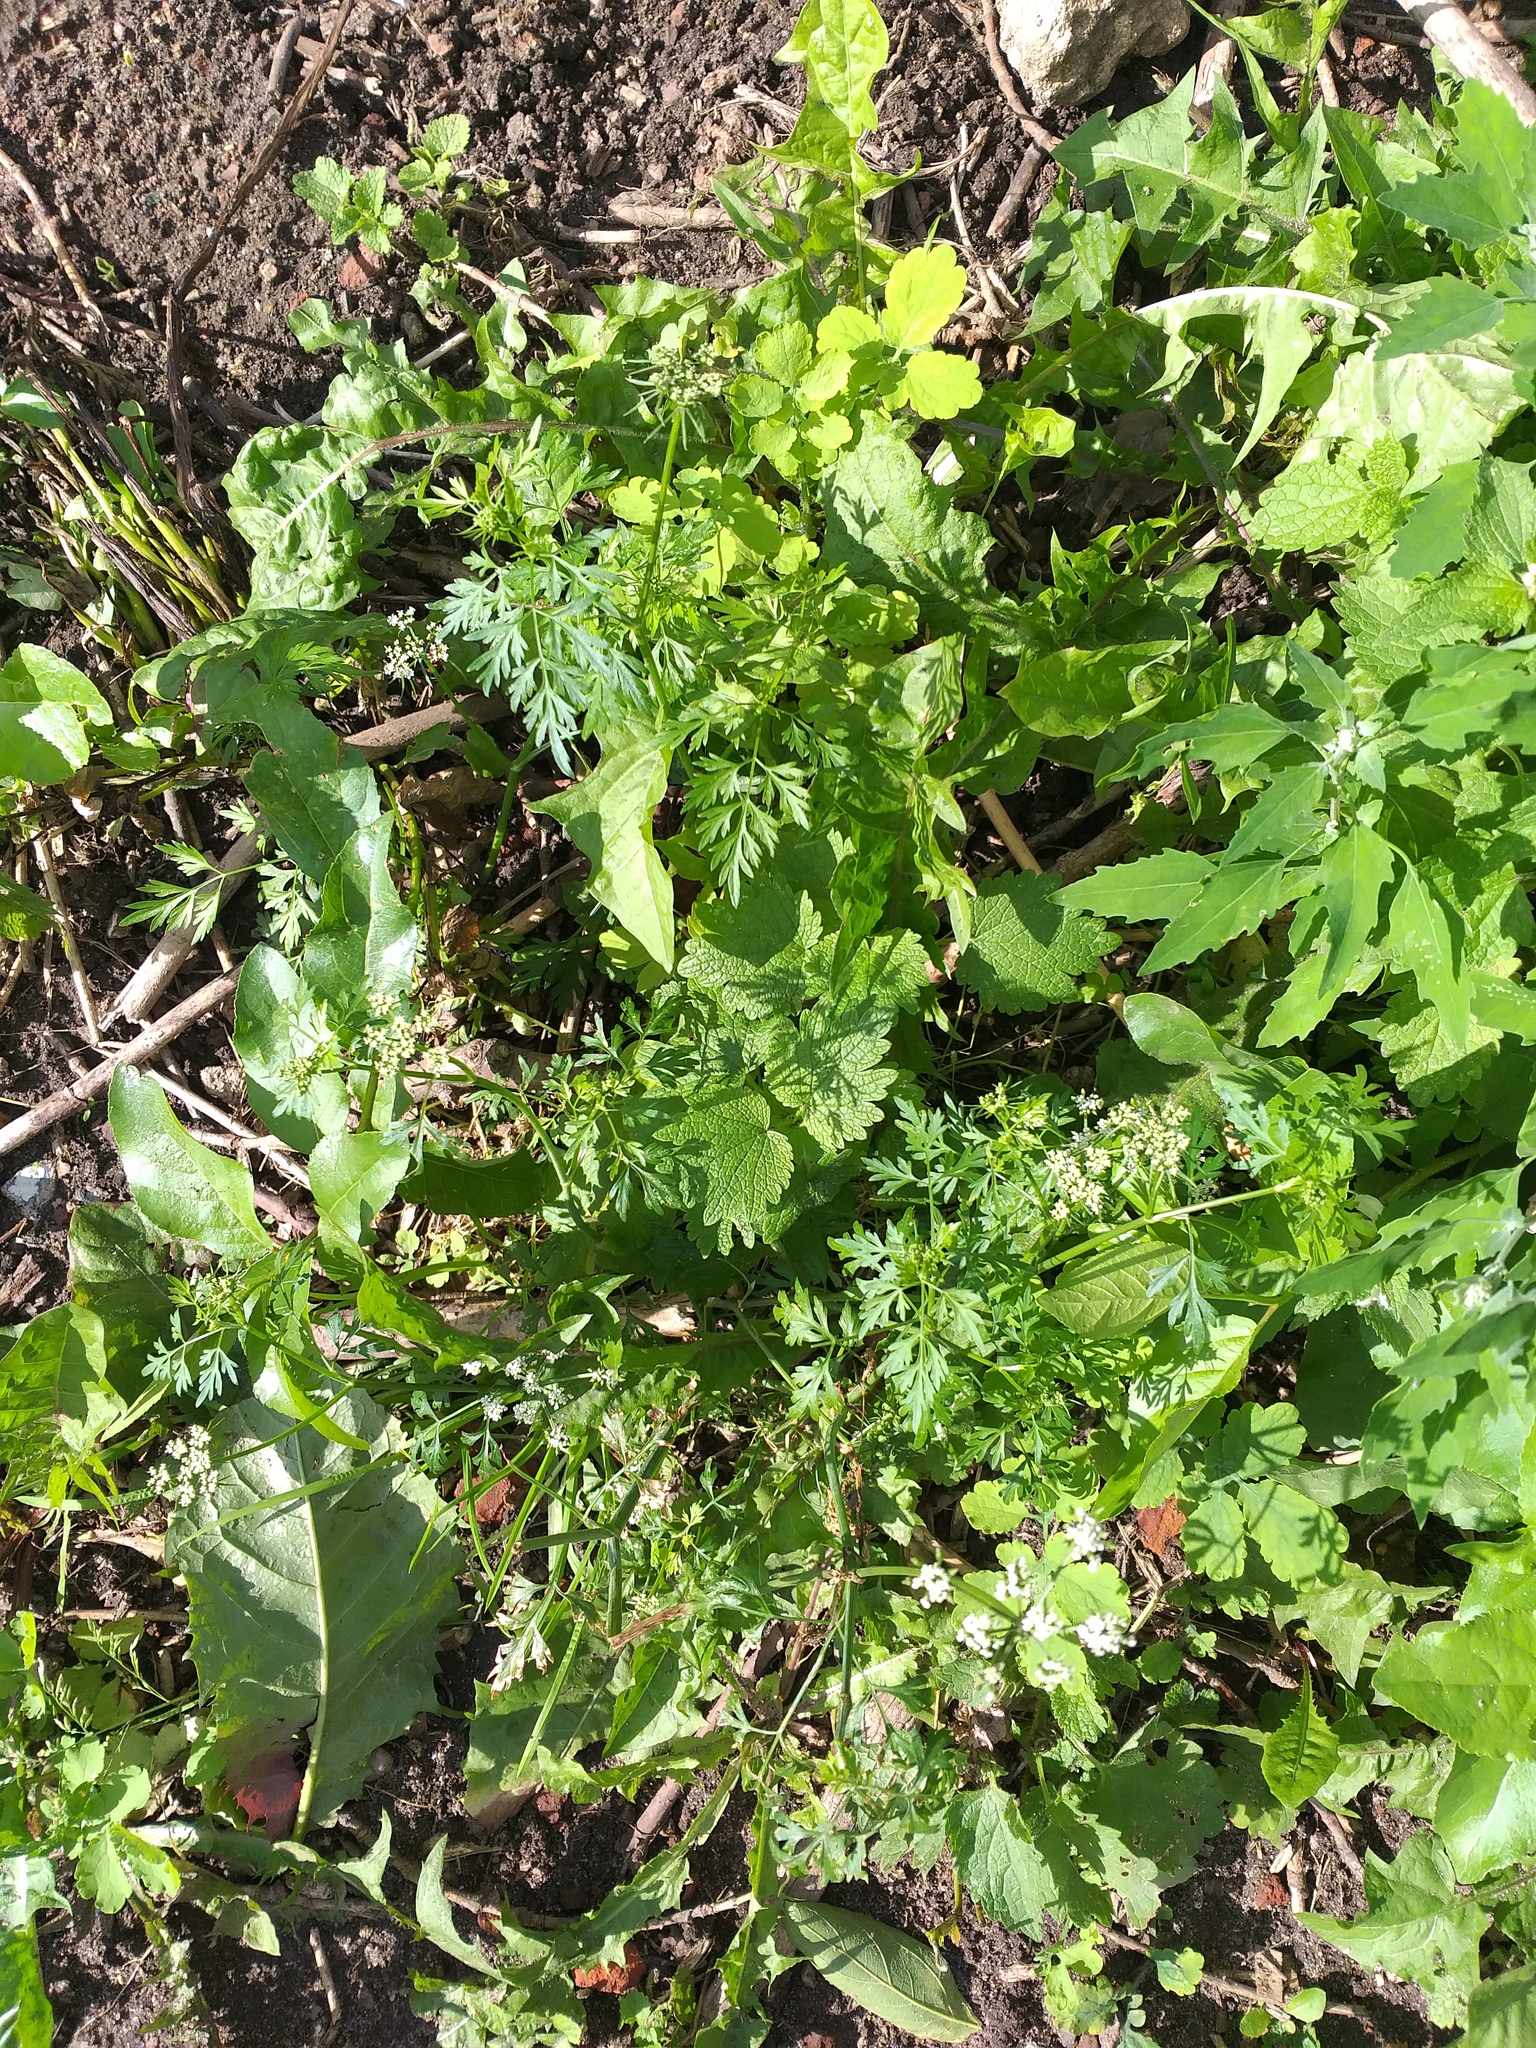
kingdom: Plantae
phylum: Tracheophyta
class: Magnoliopsida
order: Apiales
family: Apiaceae
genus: Aethusa
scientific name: Aethusa cynapium
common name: Fool's parsley
